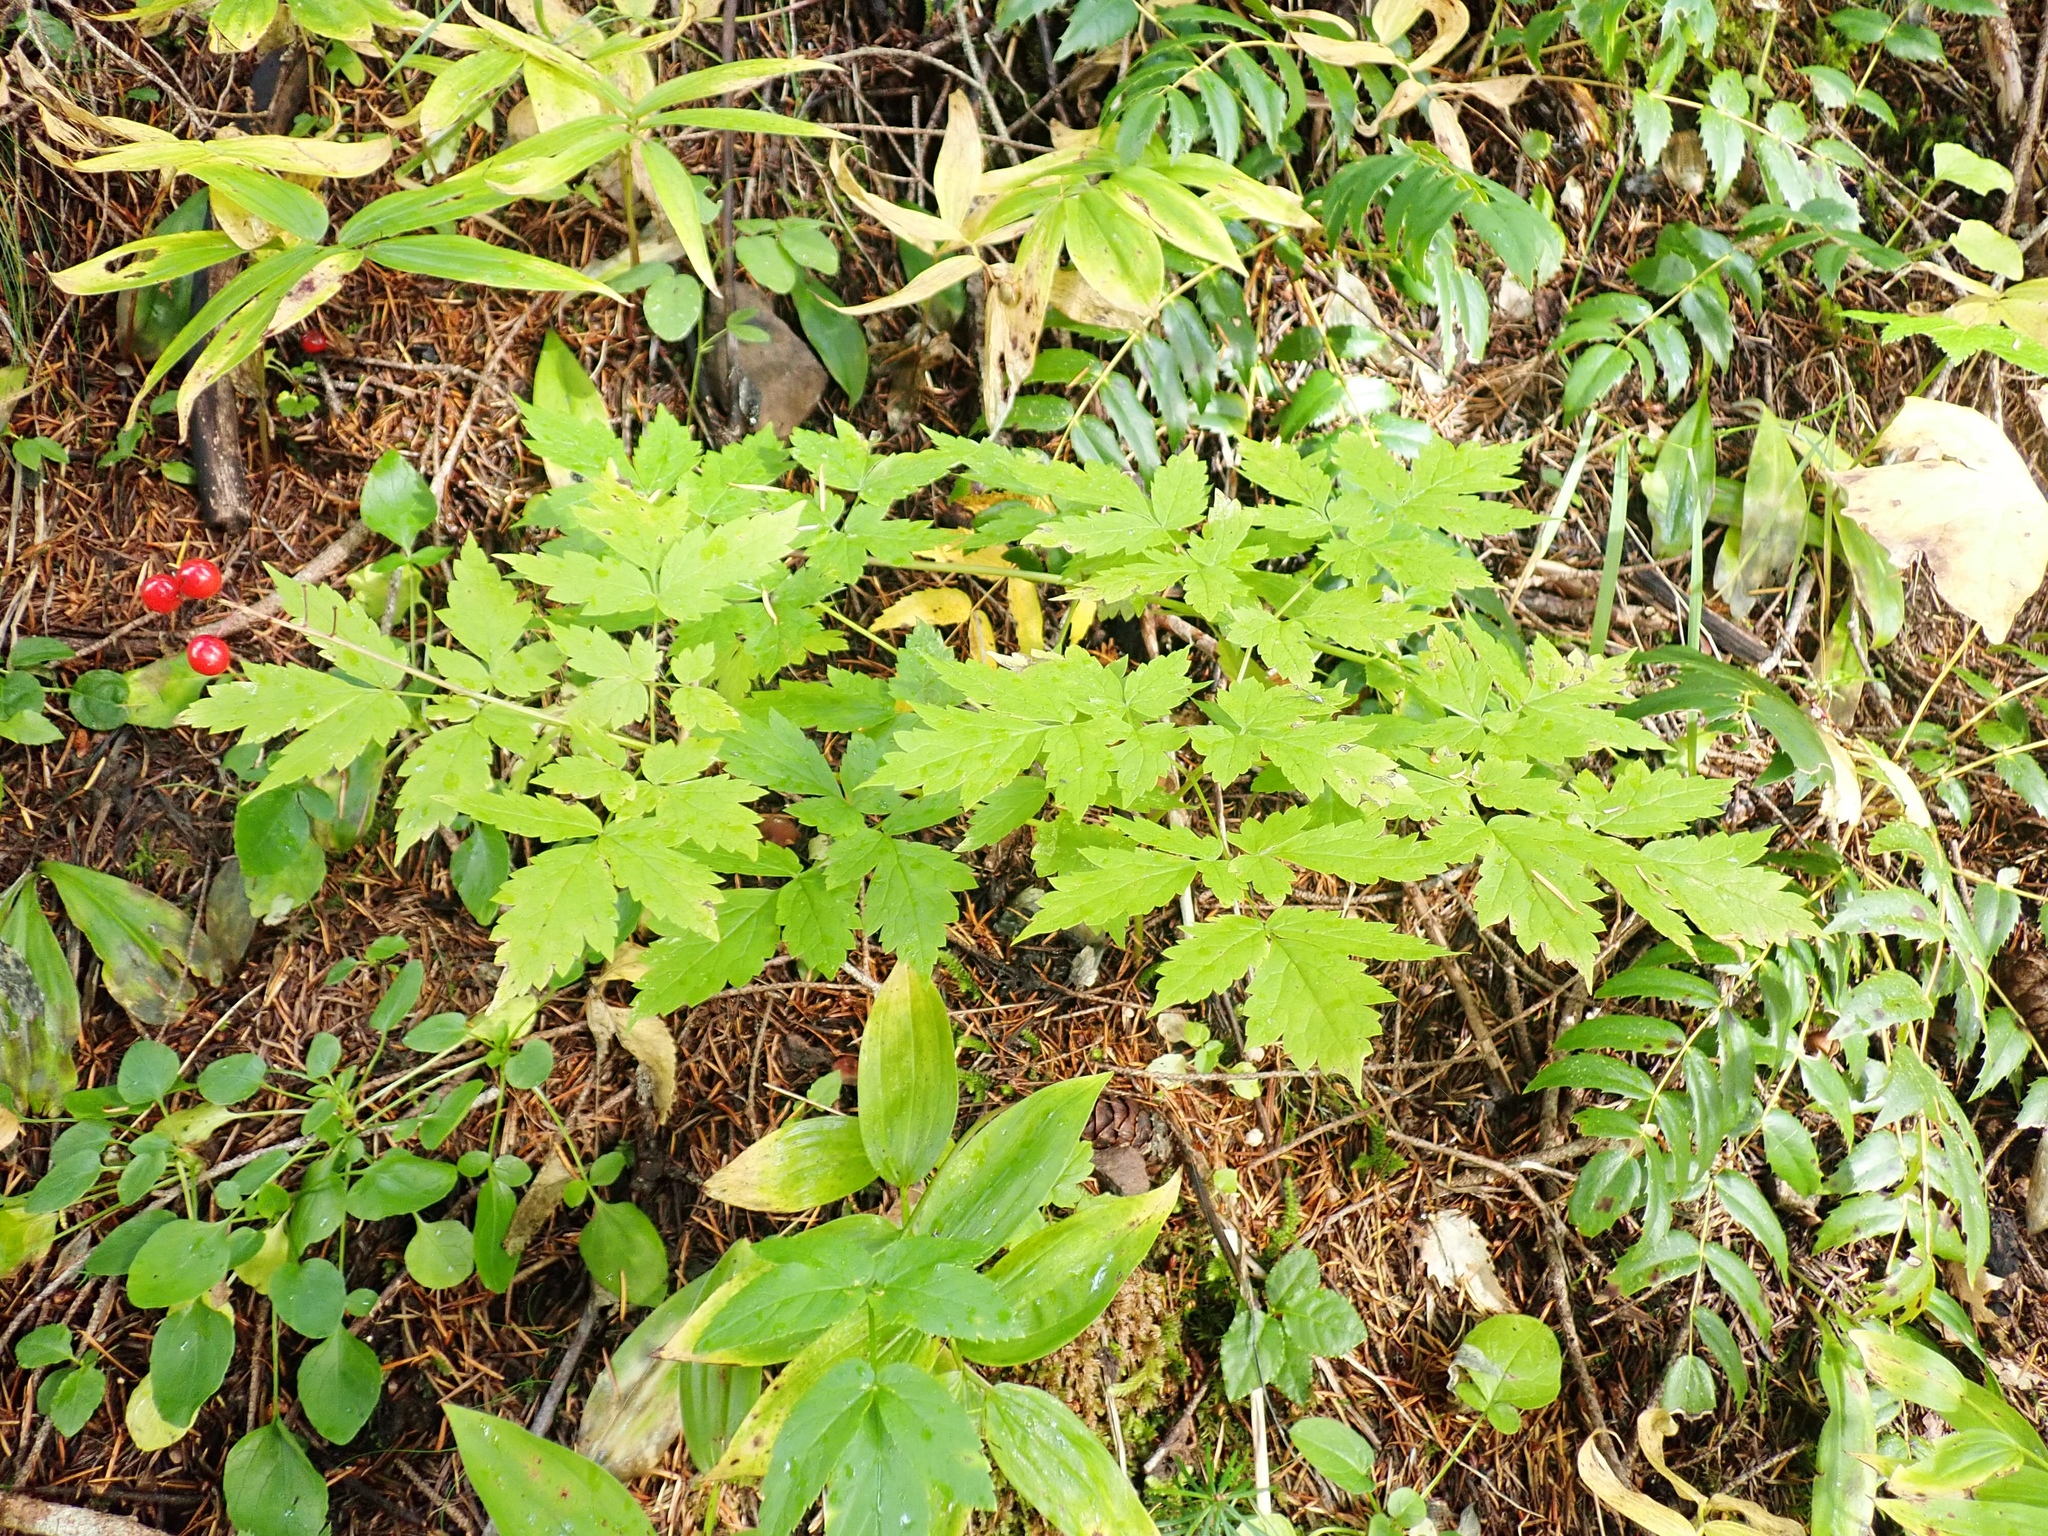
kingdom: Plantae
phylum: Tracheophyta
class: Magnoliopsida
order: Ranunculales
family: Ranunculaceae
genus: Actaea
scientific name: Actaea rubra
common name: Red baneberry
